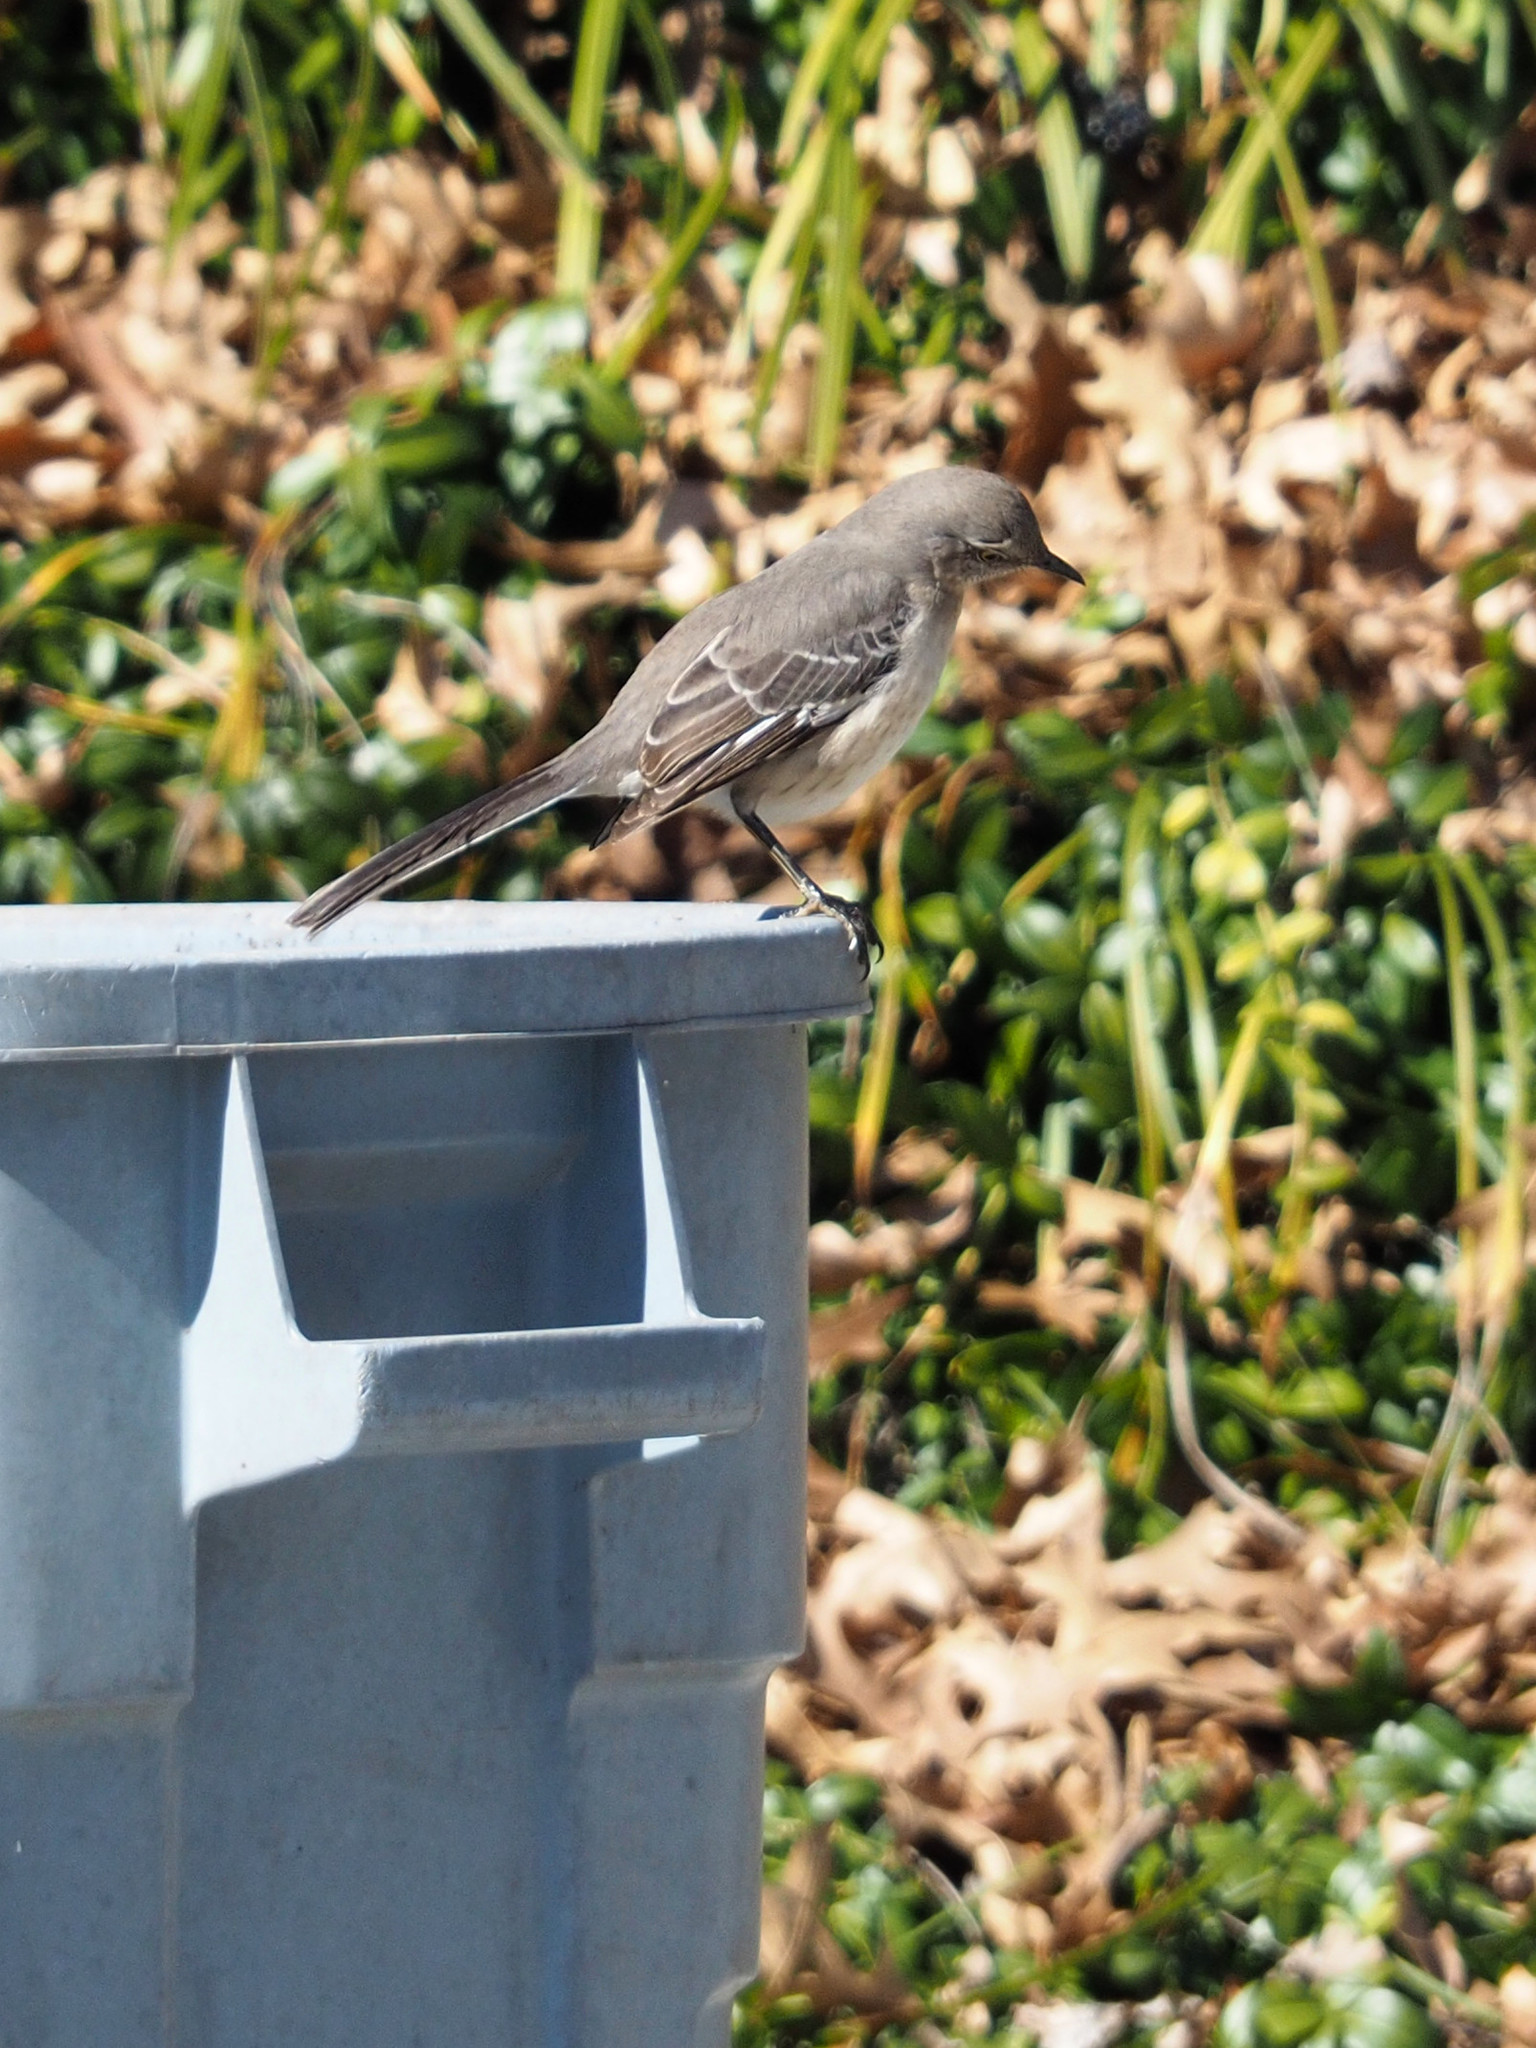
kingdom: Animalia
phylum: Chordata
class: Aves
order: Passeriformes
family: Mimidae
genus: Mimus
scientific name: Mimus polyglottos
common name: Northern mockingbird
